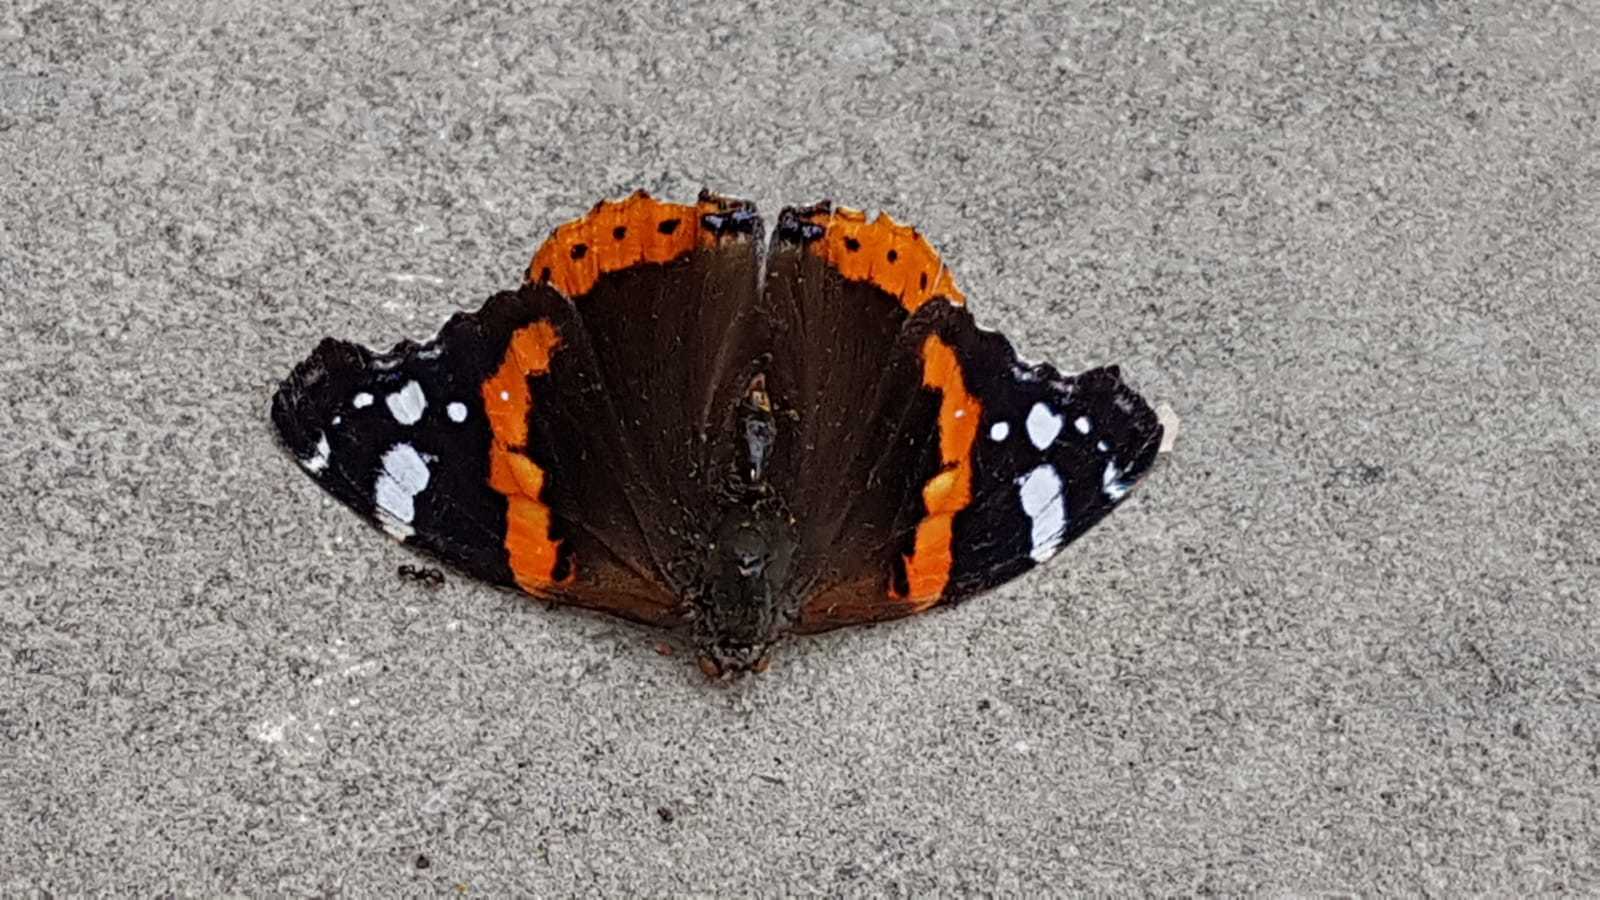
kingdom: Animalia
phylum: Arthropoda
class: Insecta
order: Lepidoptera
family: Nymphalidae
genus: Vanessa
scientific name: Vanessa atalanta
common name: Red admiral
